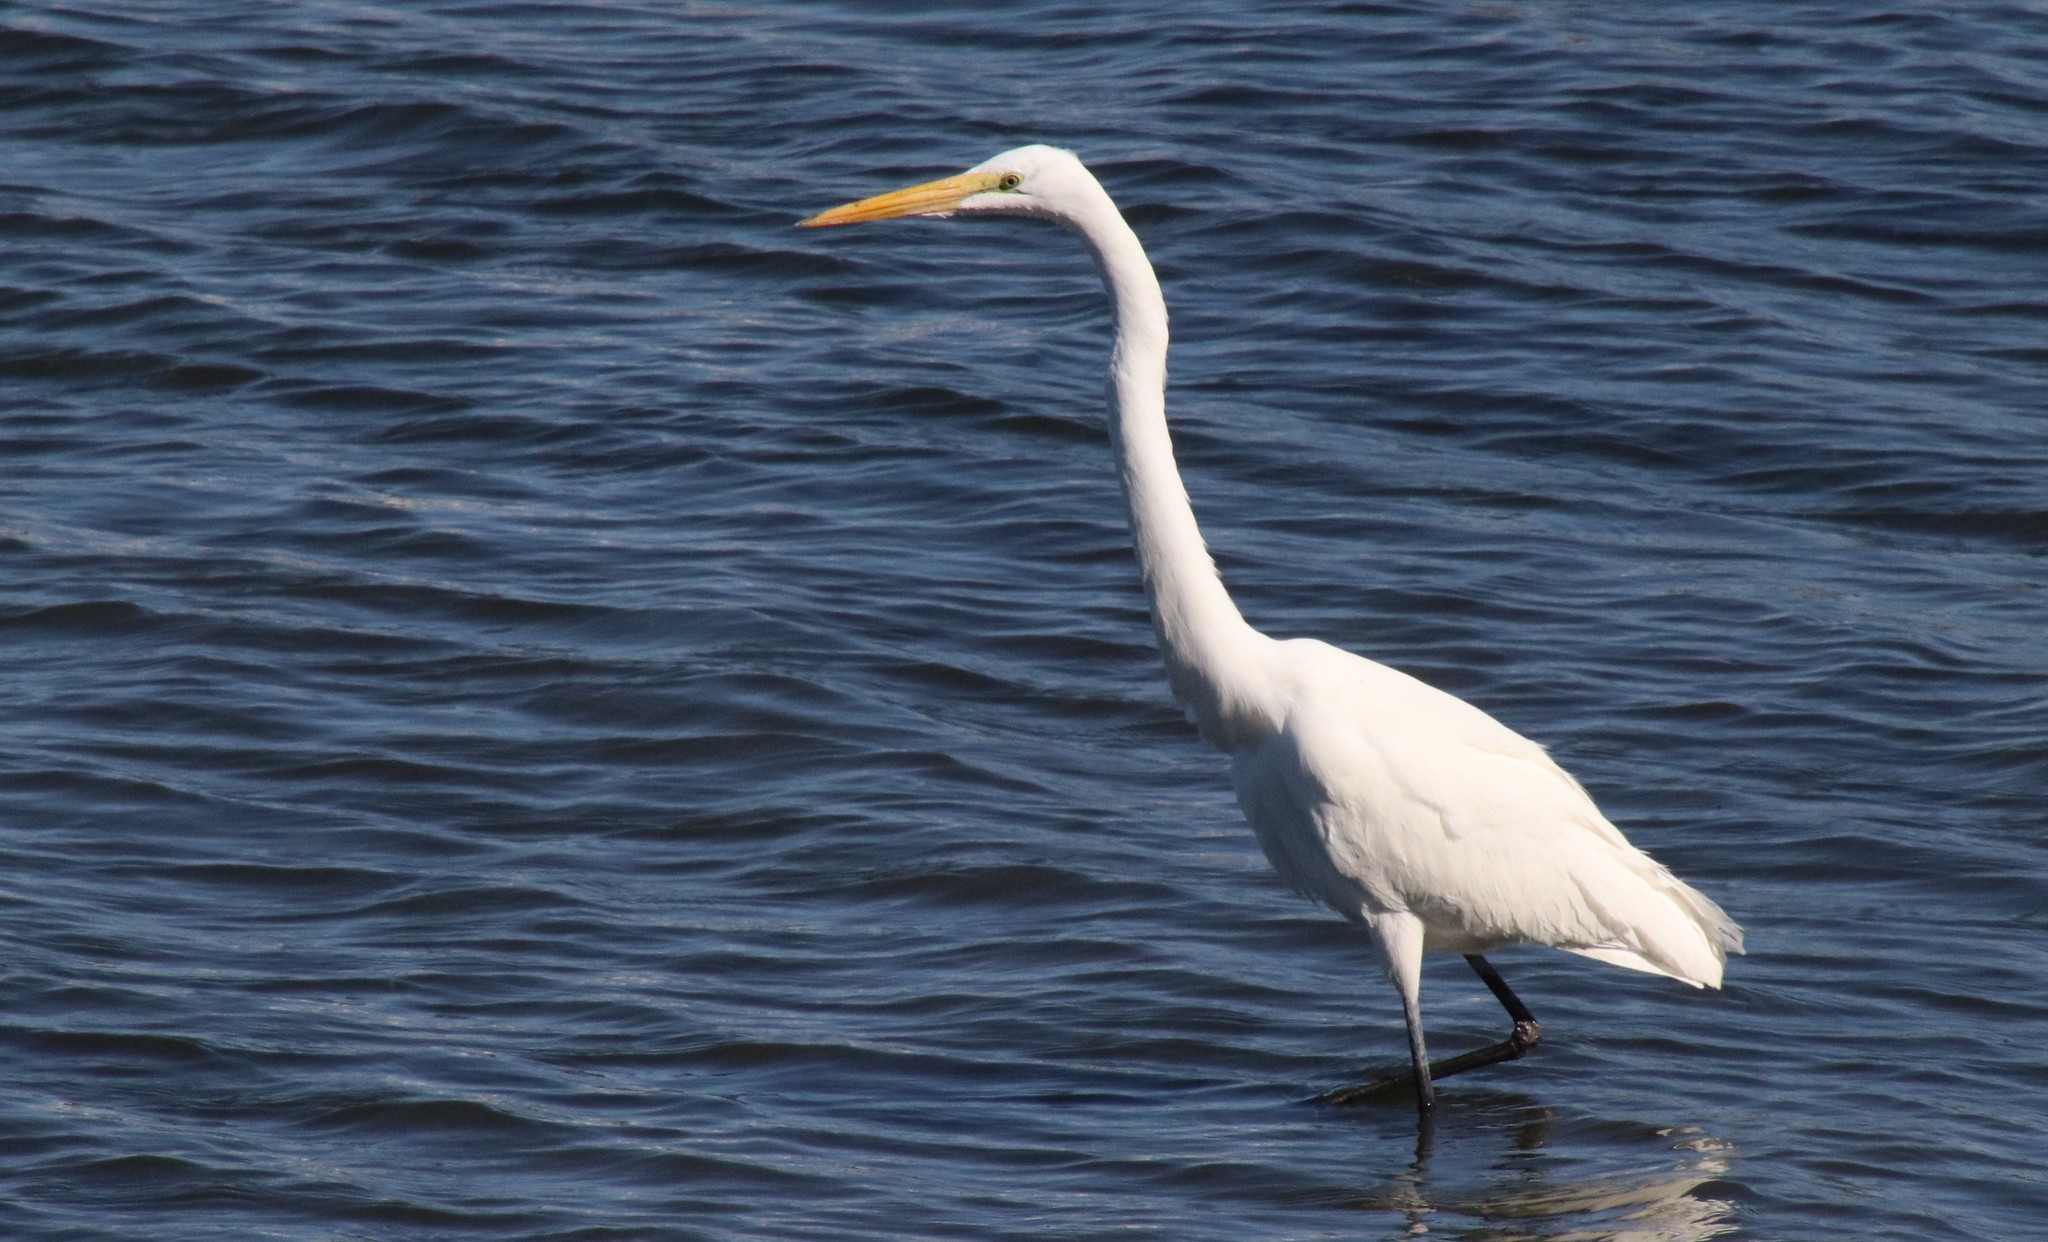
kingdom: Animalia
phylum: Chordata
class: Aves
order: Pelecaniformes
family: Ardeidae
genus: Ardea
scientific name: Ardea alba
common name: Great egret
